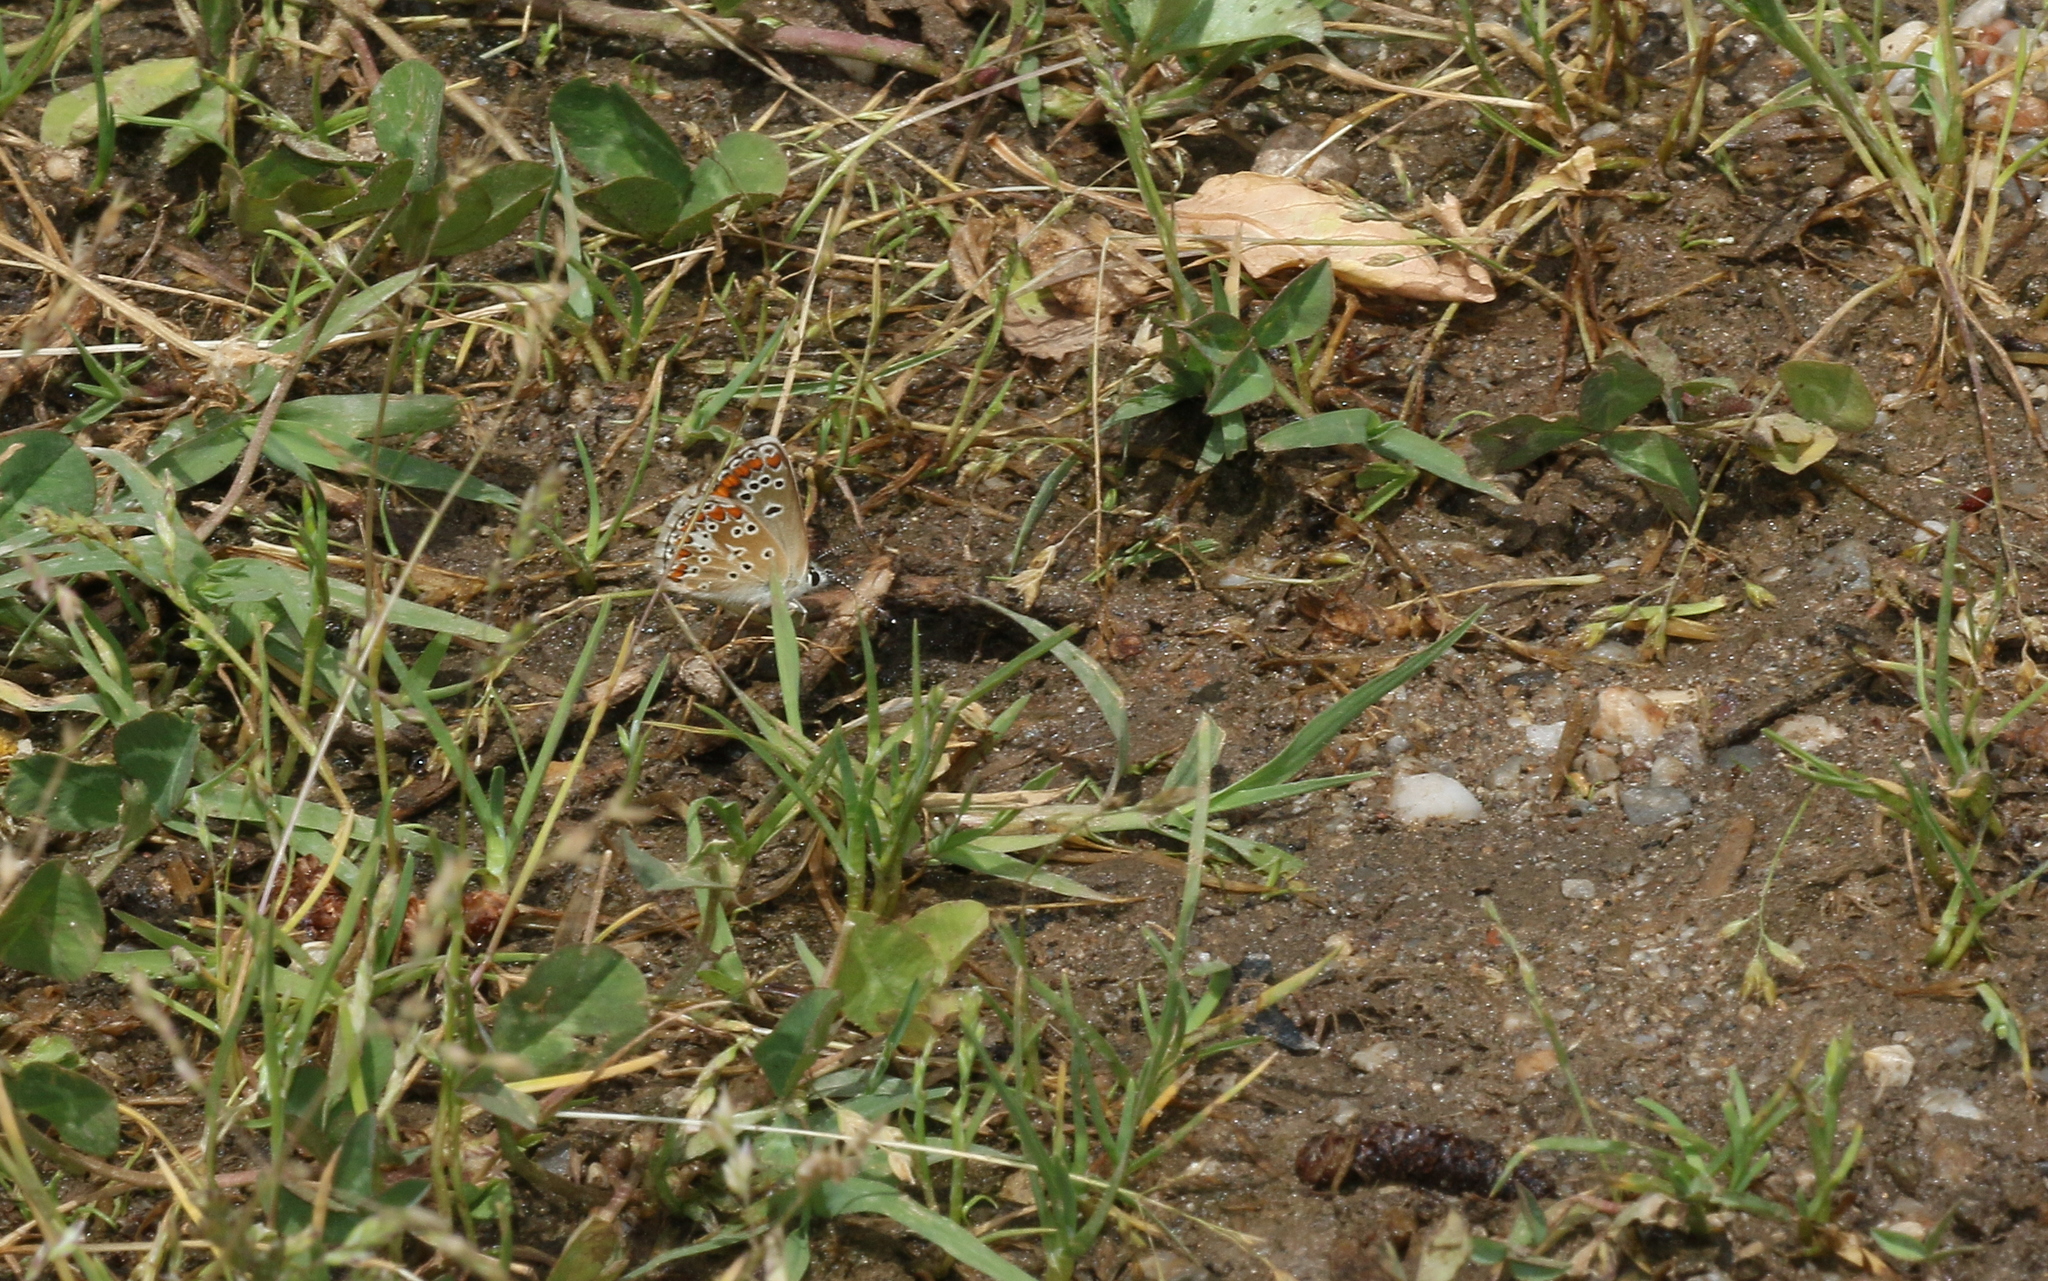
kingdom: Animalia
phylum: Arthropoda
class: Insecta
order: Lepidoptera
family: Lycaenidae
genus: Aricia
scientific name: Aricia agestis
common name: Brown argus
